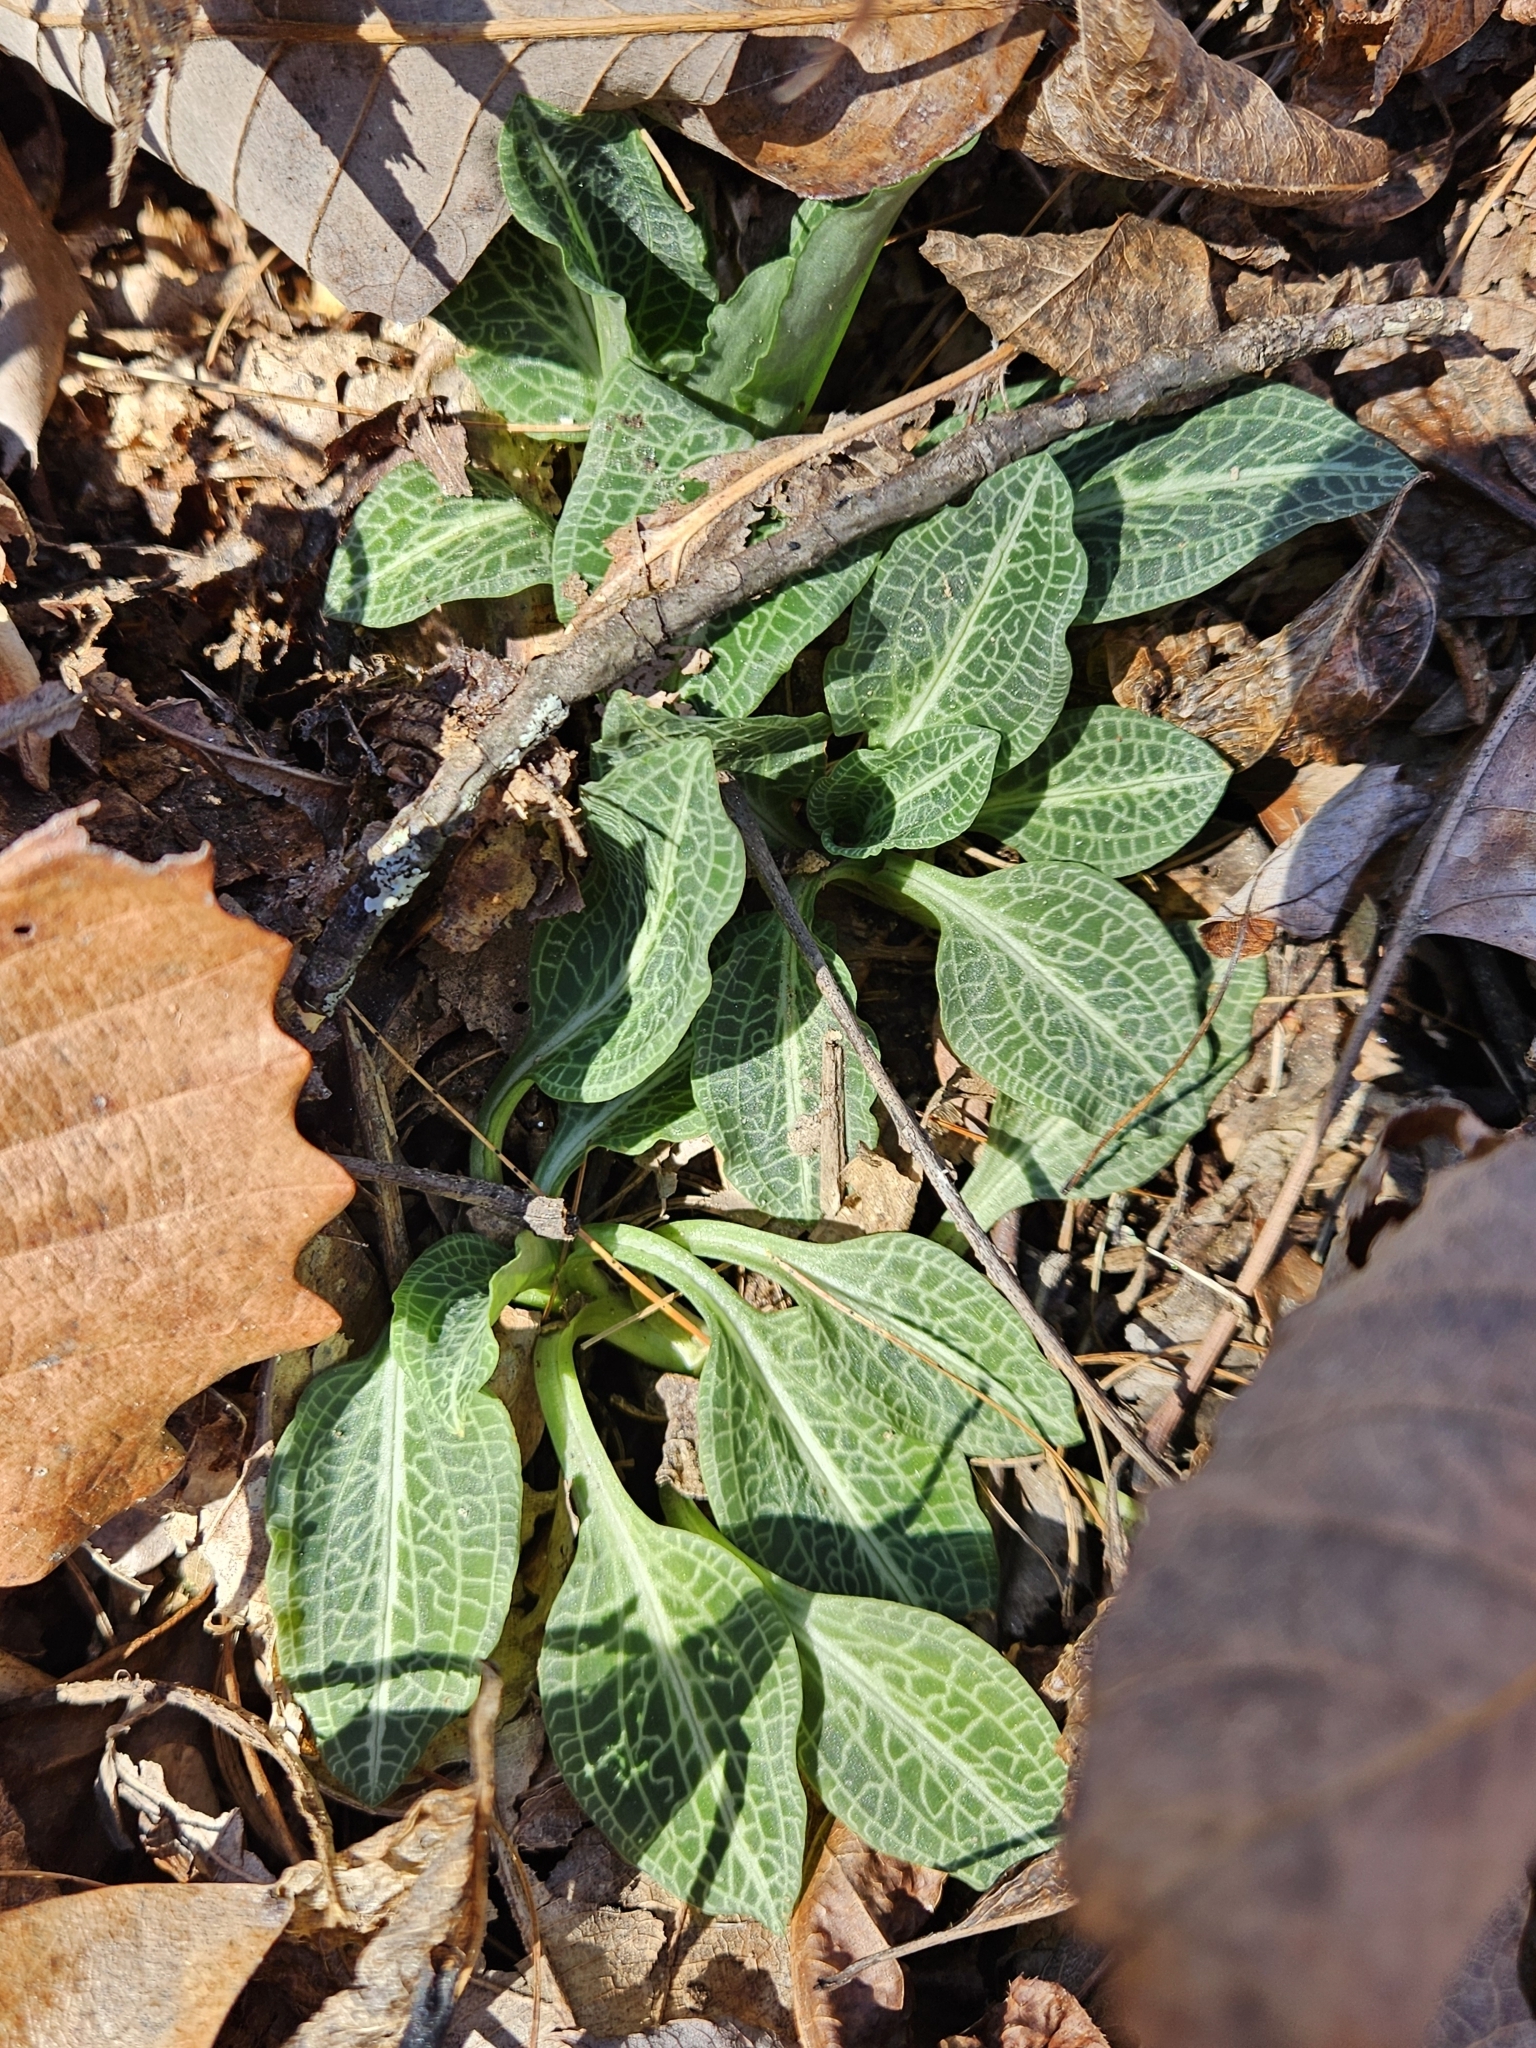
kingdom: Plantae
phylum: Tracheophyta
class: Liliopsida
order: Asparagales
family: Orchidaceae
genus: Goodyera
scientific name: Goodyera pubescens
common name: Downy rattlesnake-plantain
